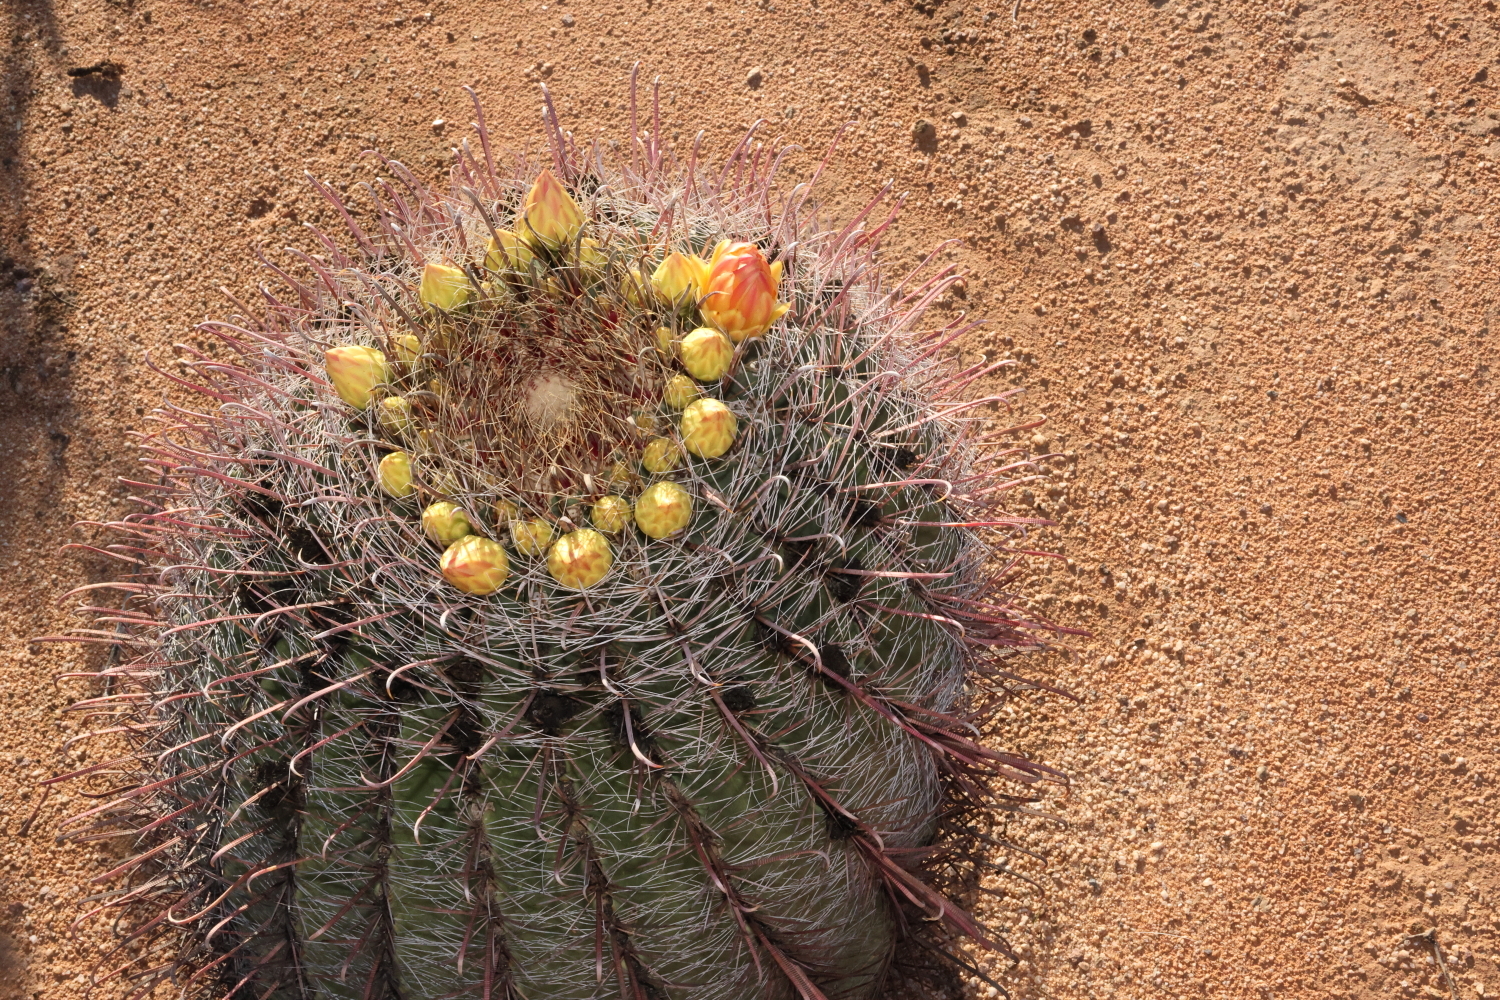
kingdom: Plantae
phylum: Tracheophyta
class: Magnoliopsida
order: Caryophyllales
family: Cactaceae
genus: Ferocactus
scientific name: Ferocactus wislizeni
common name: Candy barrel cactus
